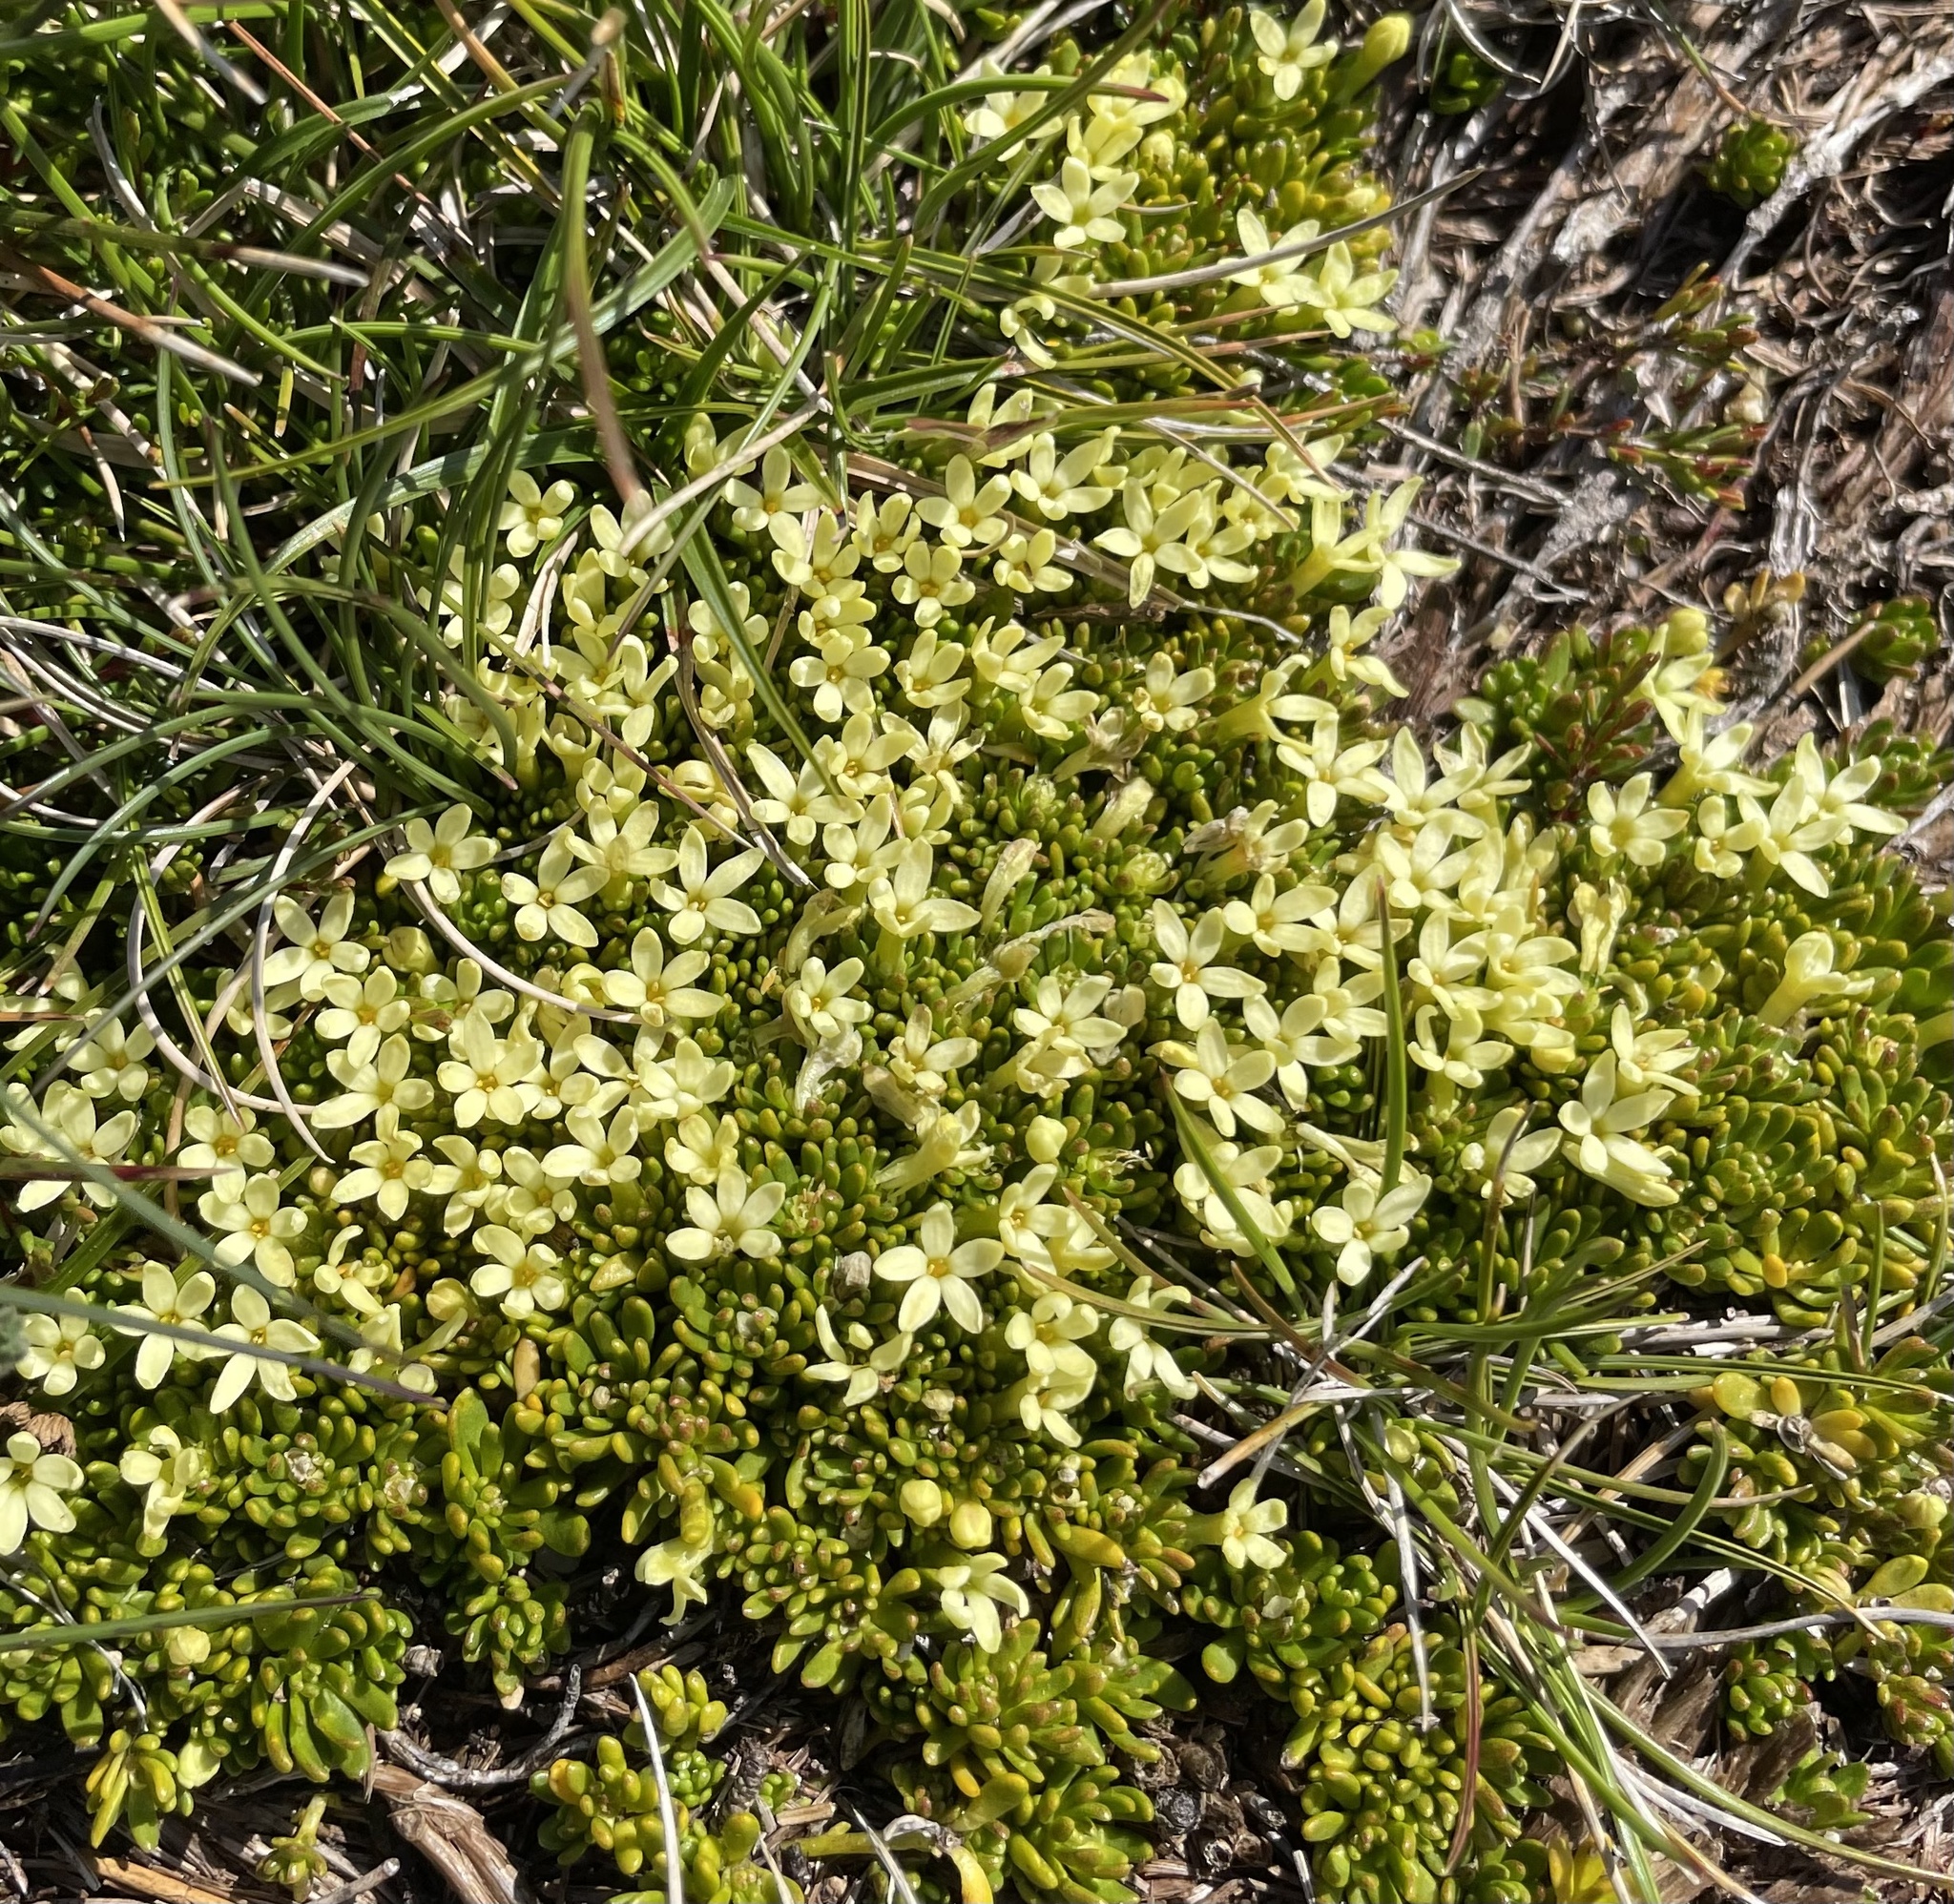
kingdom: Plantae
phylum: Tracheophyta
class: Magnoliopsida
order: Celastrales
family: Celastraceae
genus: Stackhousia
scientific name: Stackhousia pulvinaris
